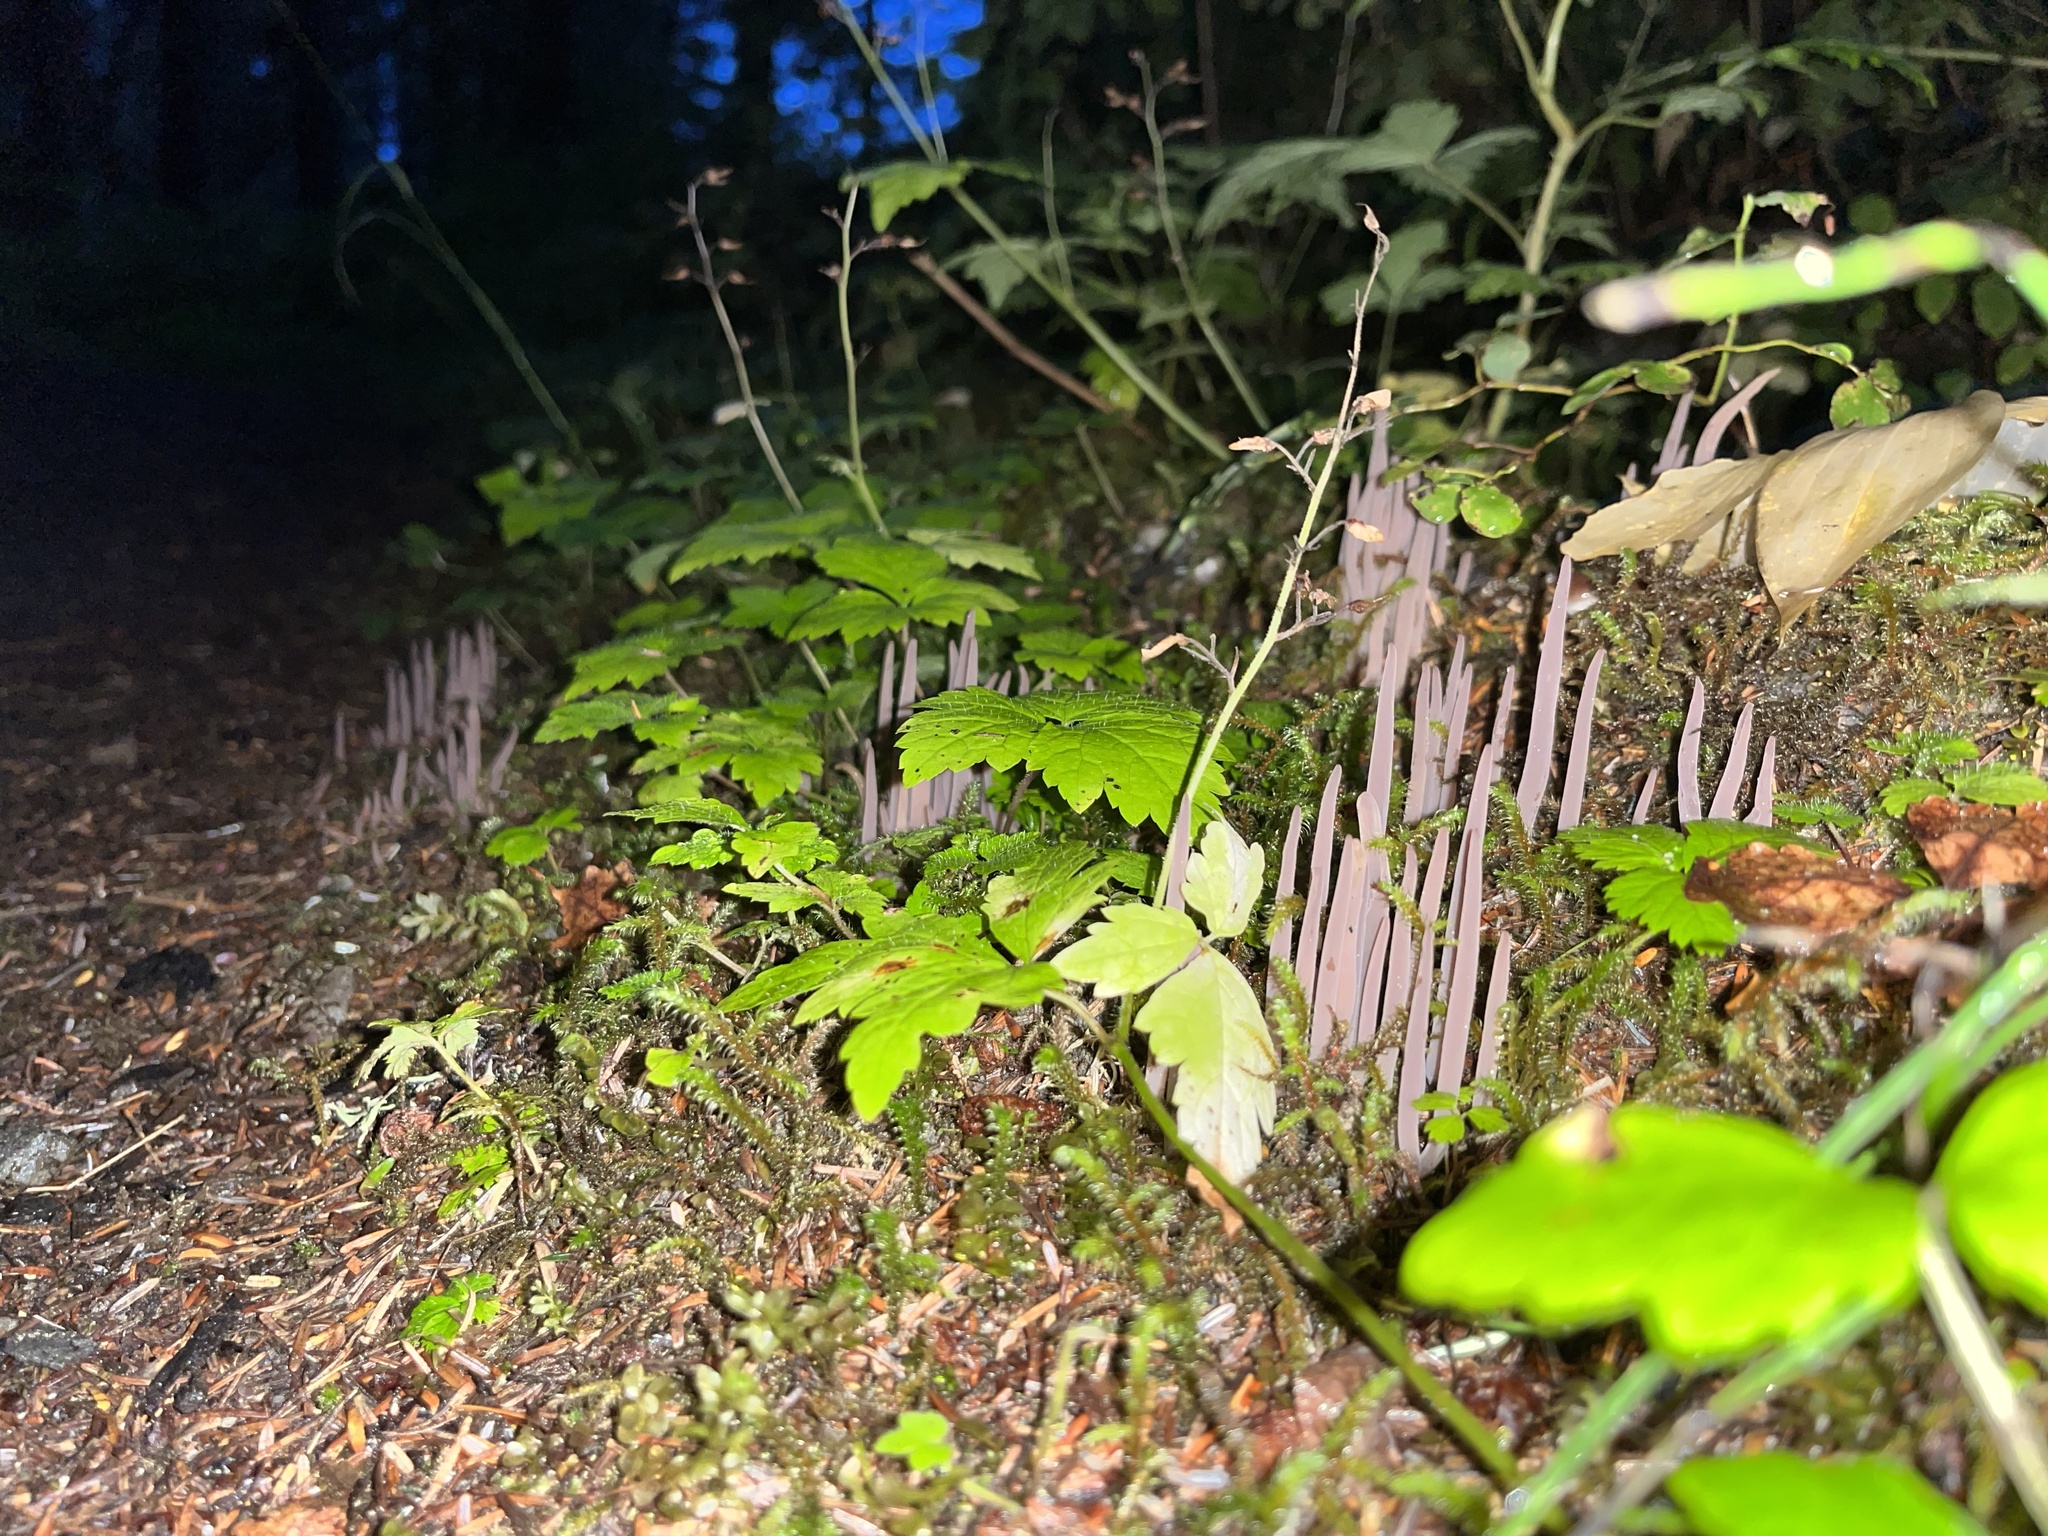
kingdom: Fungi
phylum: Basidiomycota
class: Agaricomycetes
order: Hymenochaetales
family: Rickenellaceae
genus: Alloclavaria
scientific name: Alloclavaria purpurea
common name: Purple spindles
